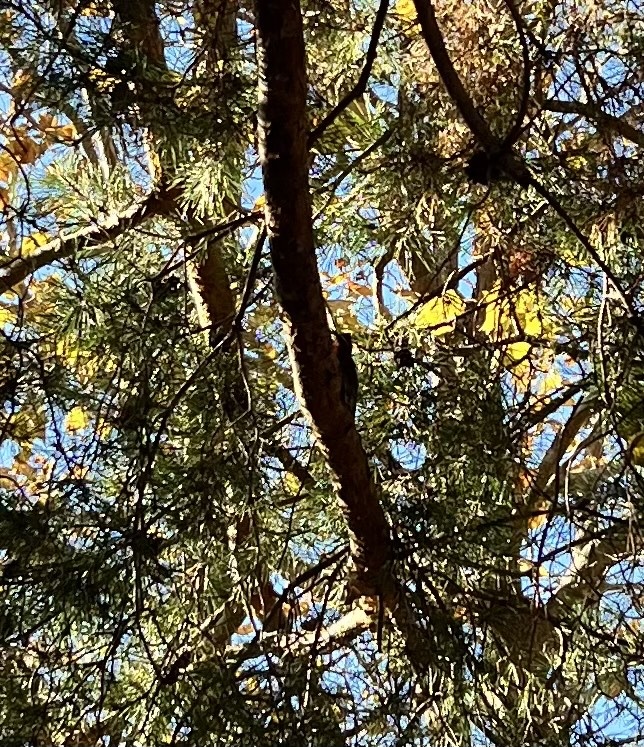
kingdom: Animalia
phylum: Chordata
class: Aves
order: Piciformes
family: Picidae
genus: Sphyrapicus
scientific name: Sphyrapicus nuchalis
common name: Red-naped sapsucker
